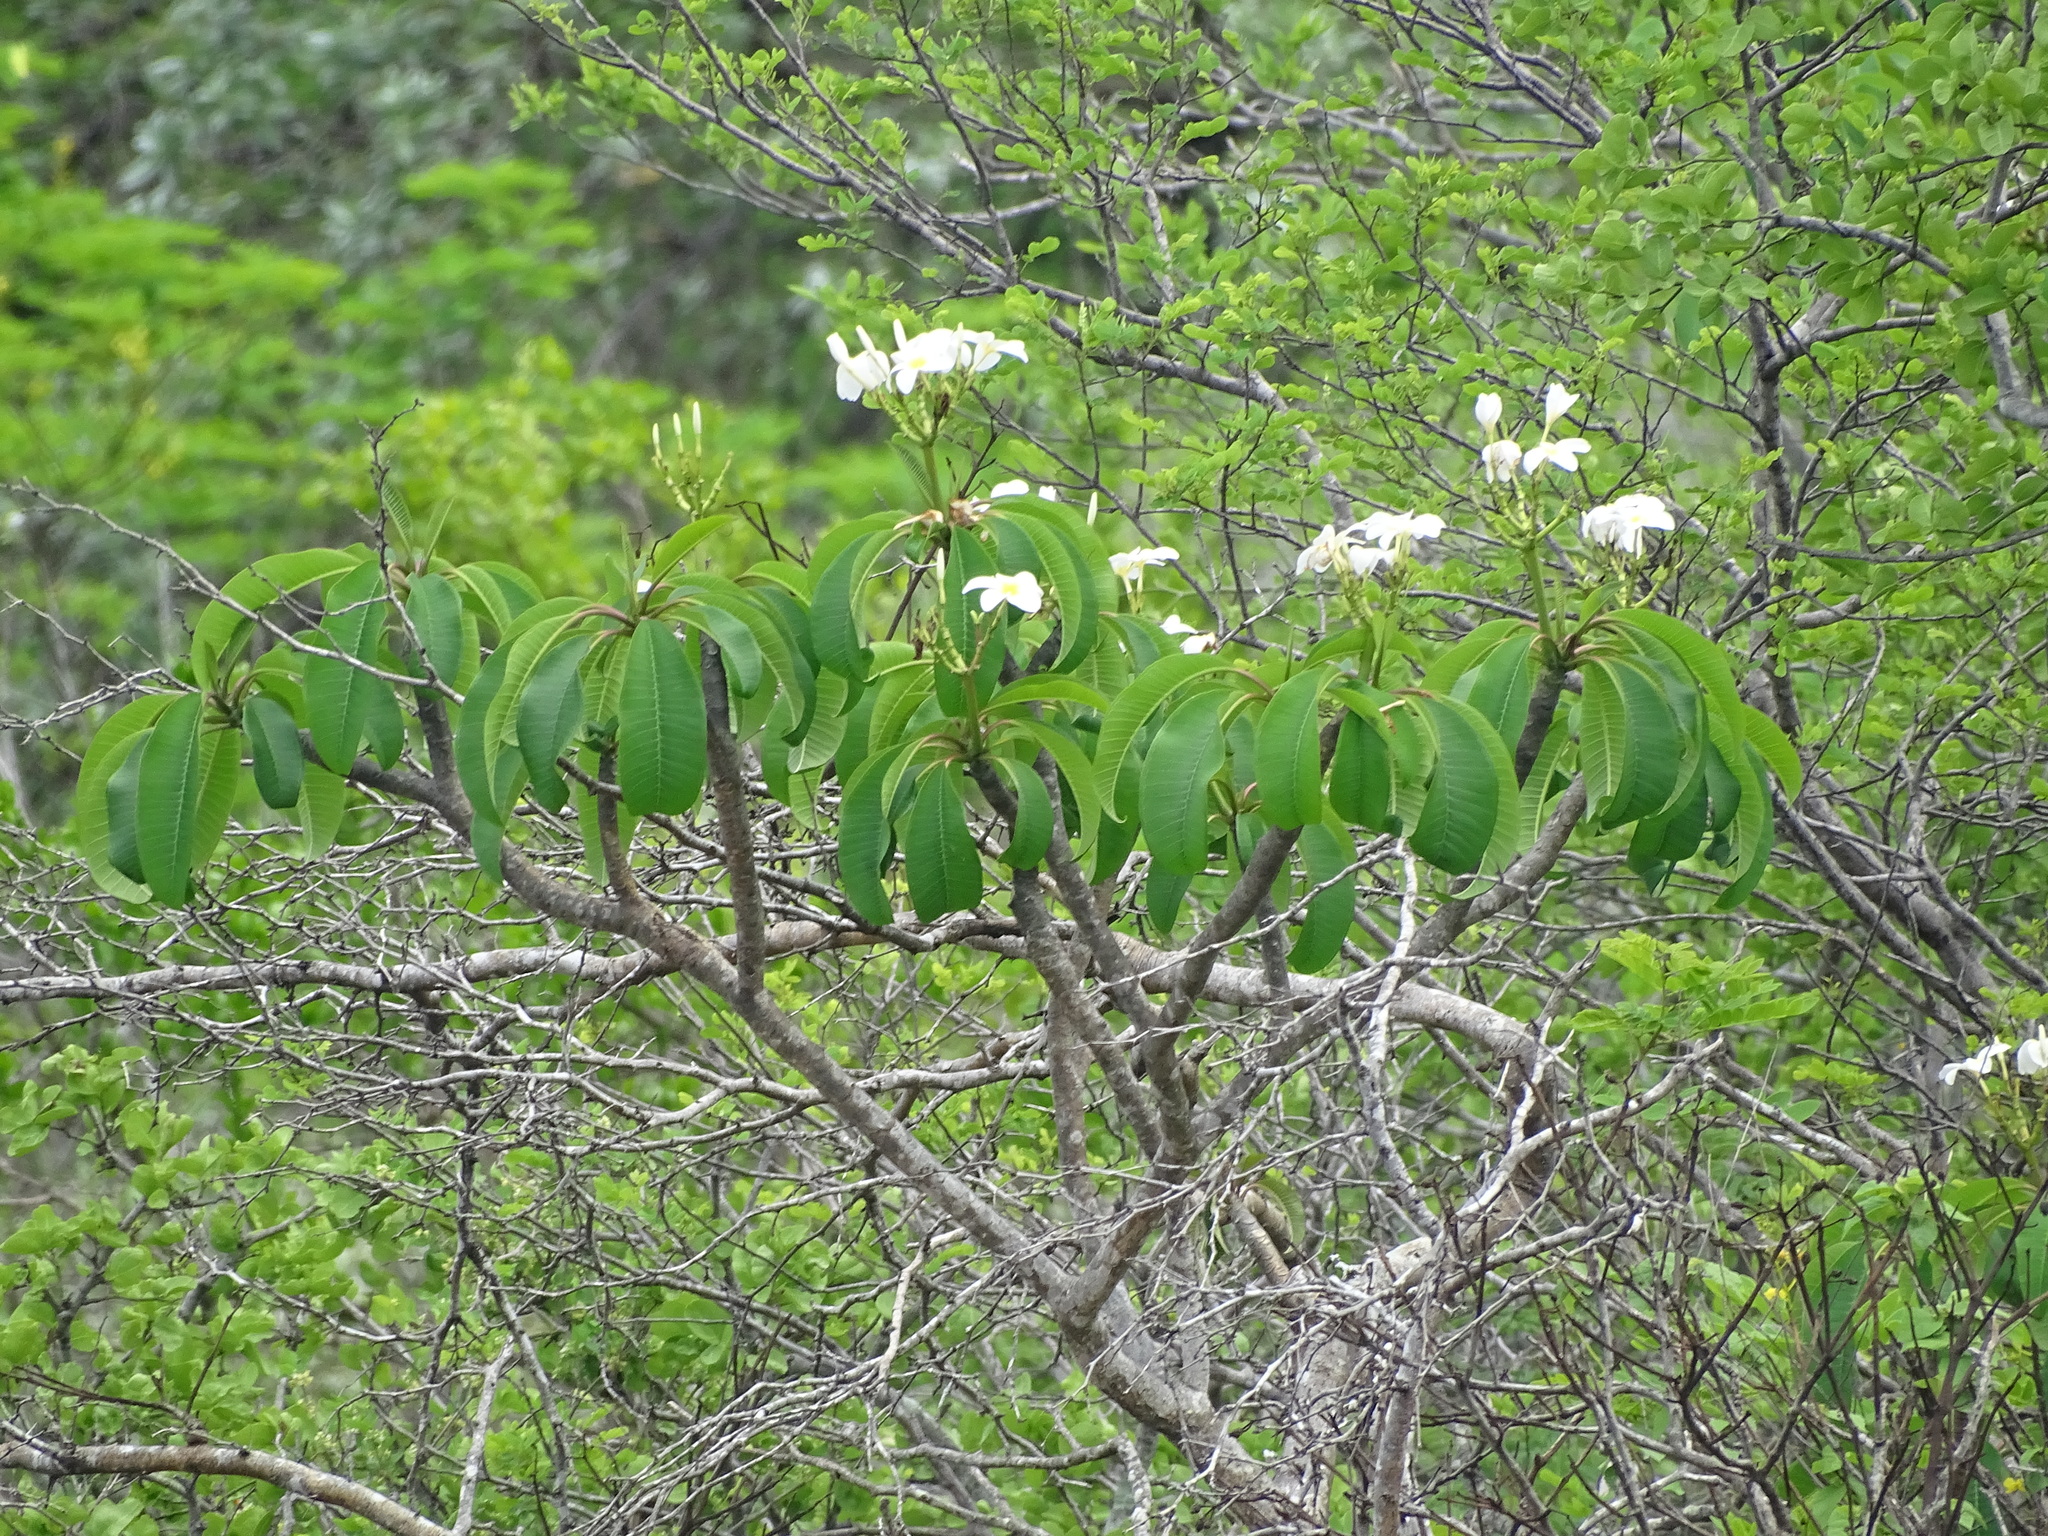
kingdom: Plantae
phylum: Tracheophyta
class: Magnoliopsida
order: Gentianales
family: Apocynaceae
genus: Plumeria
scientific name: Plumeria rubra
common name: Pagoda-tree
